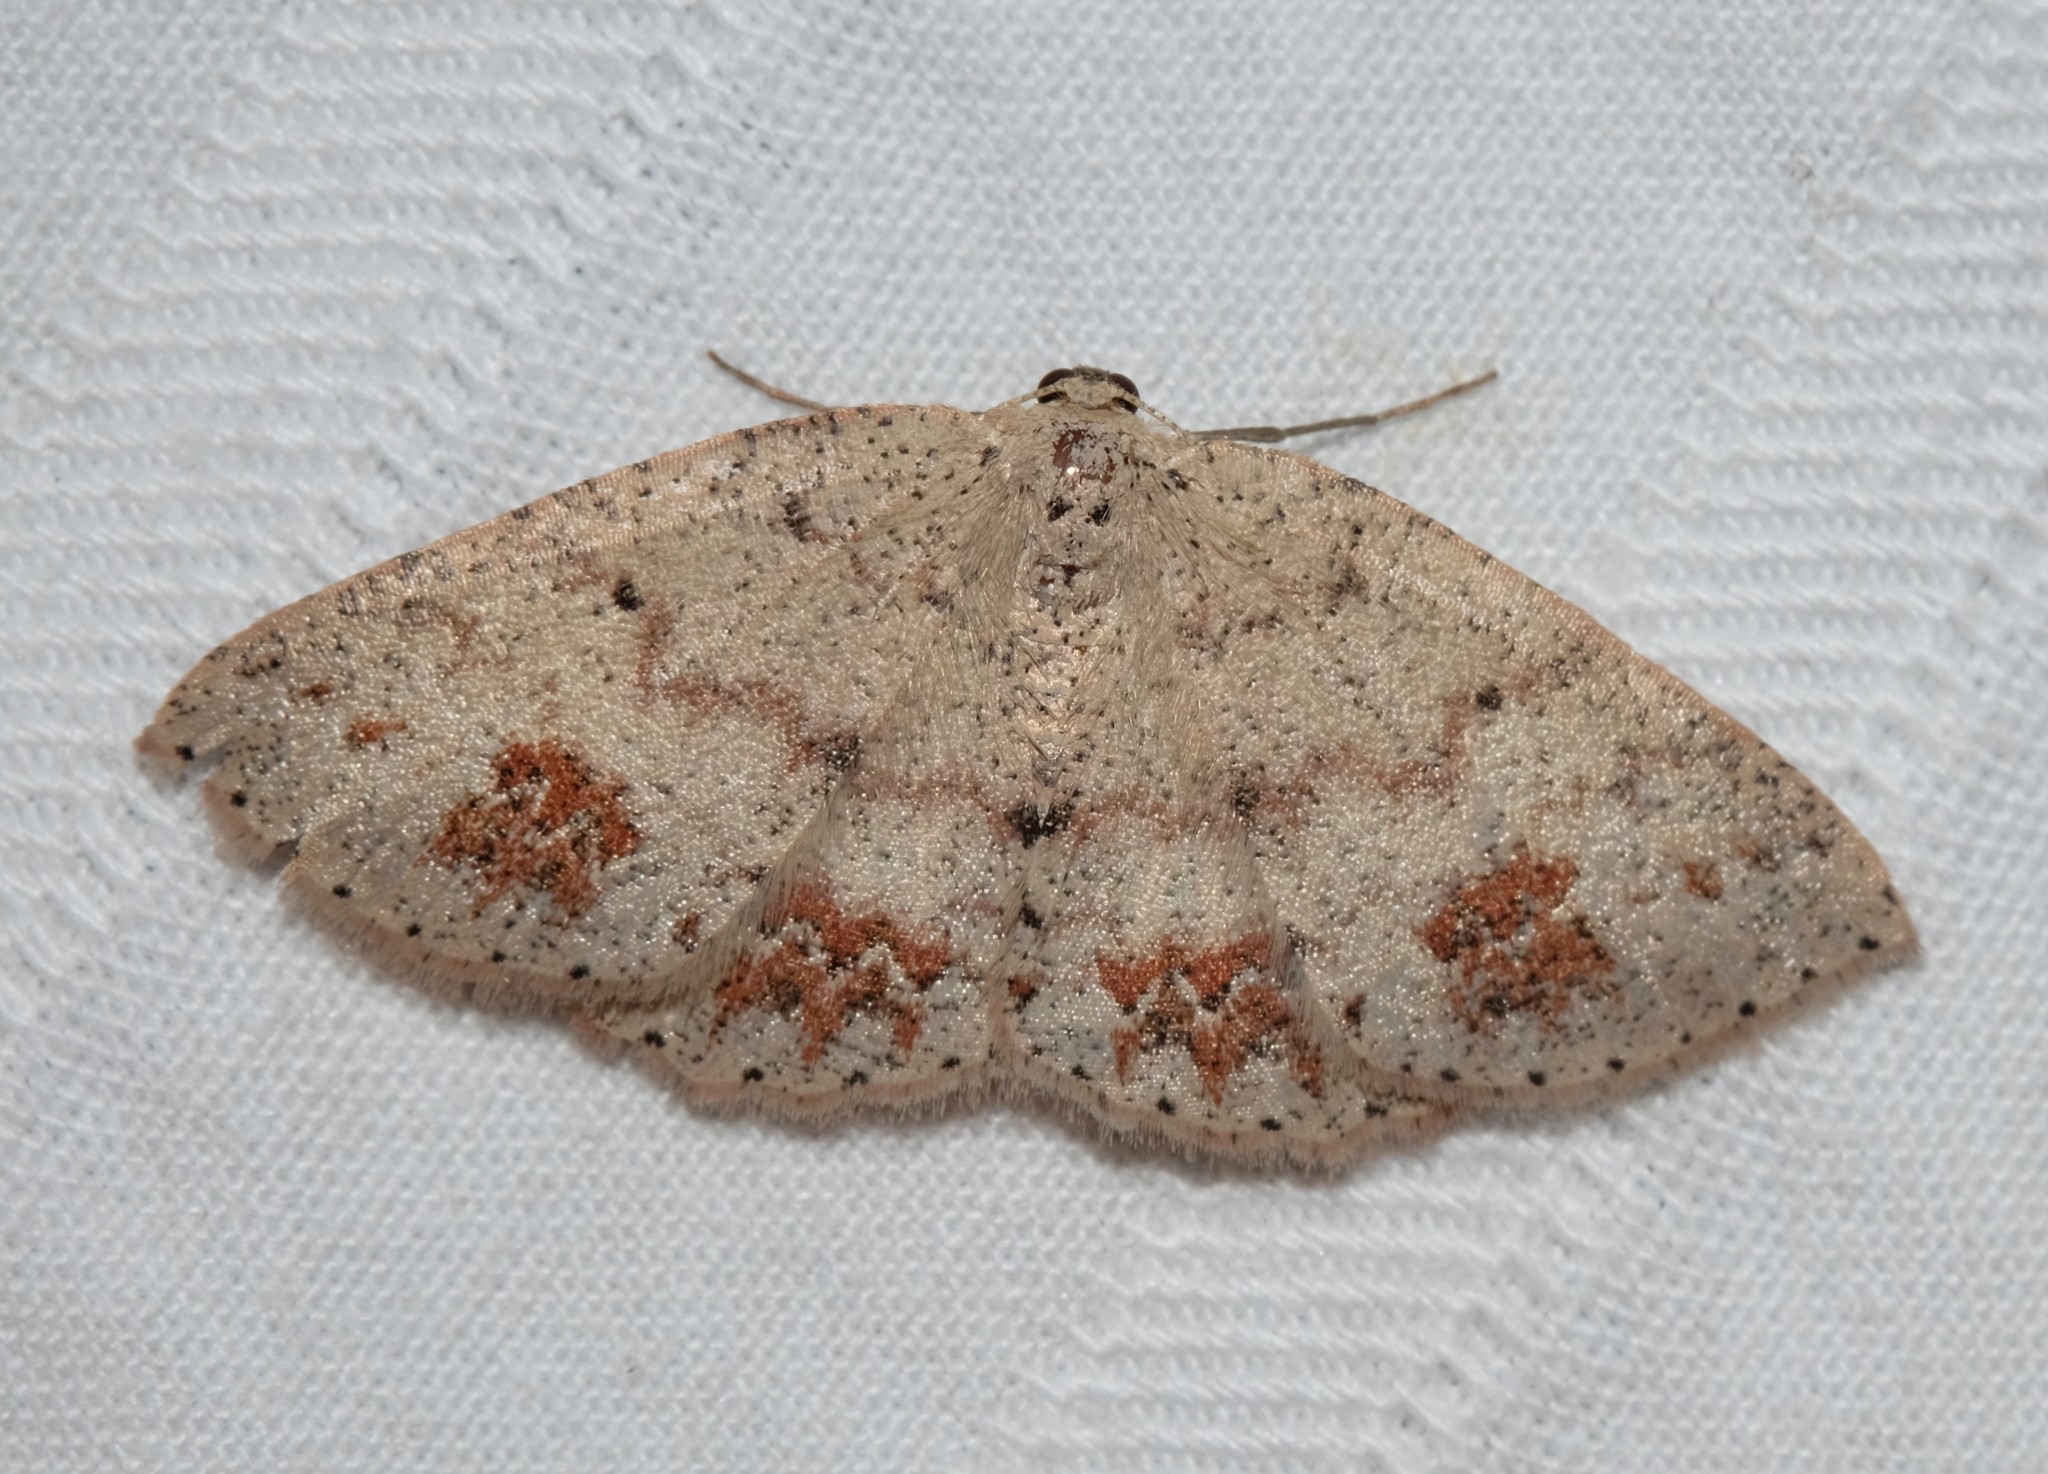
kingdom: Animalia
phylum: Arthropoda
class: Insecta
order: Lepidoptera
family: Geometridae
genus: Casbia
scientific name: Casbia celidosema
